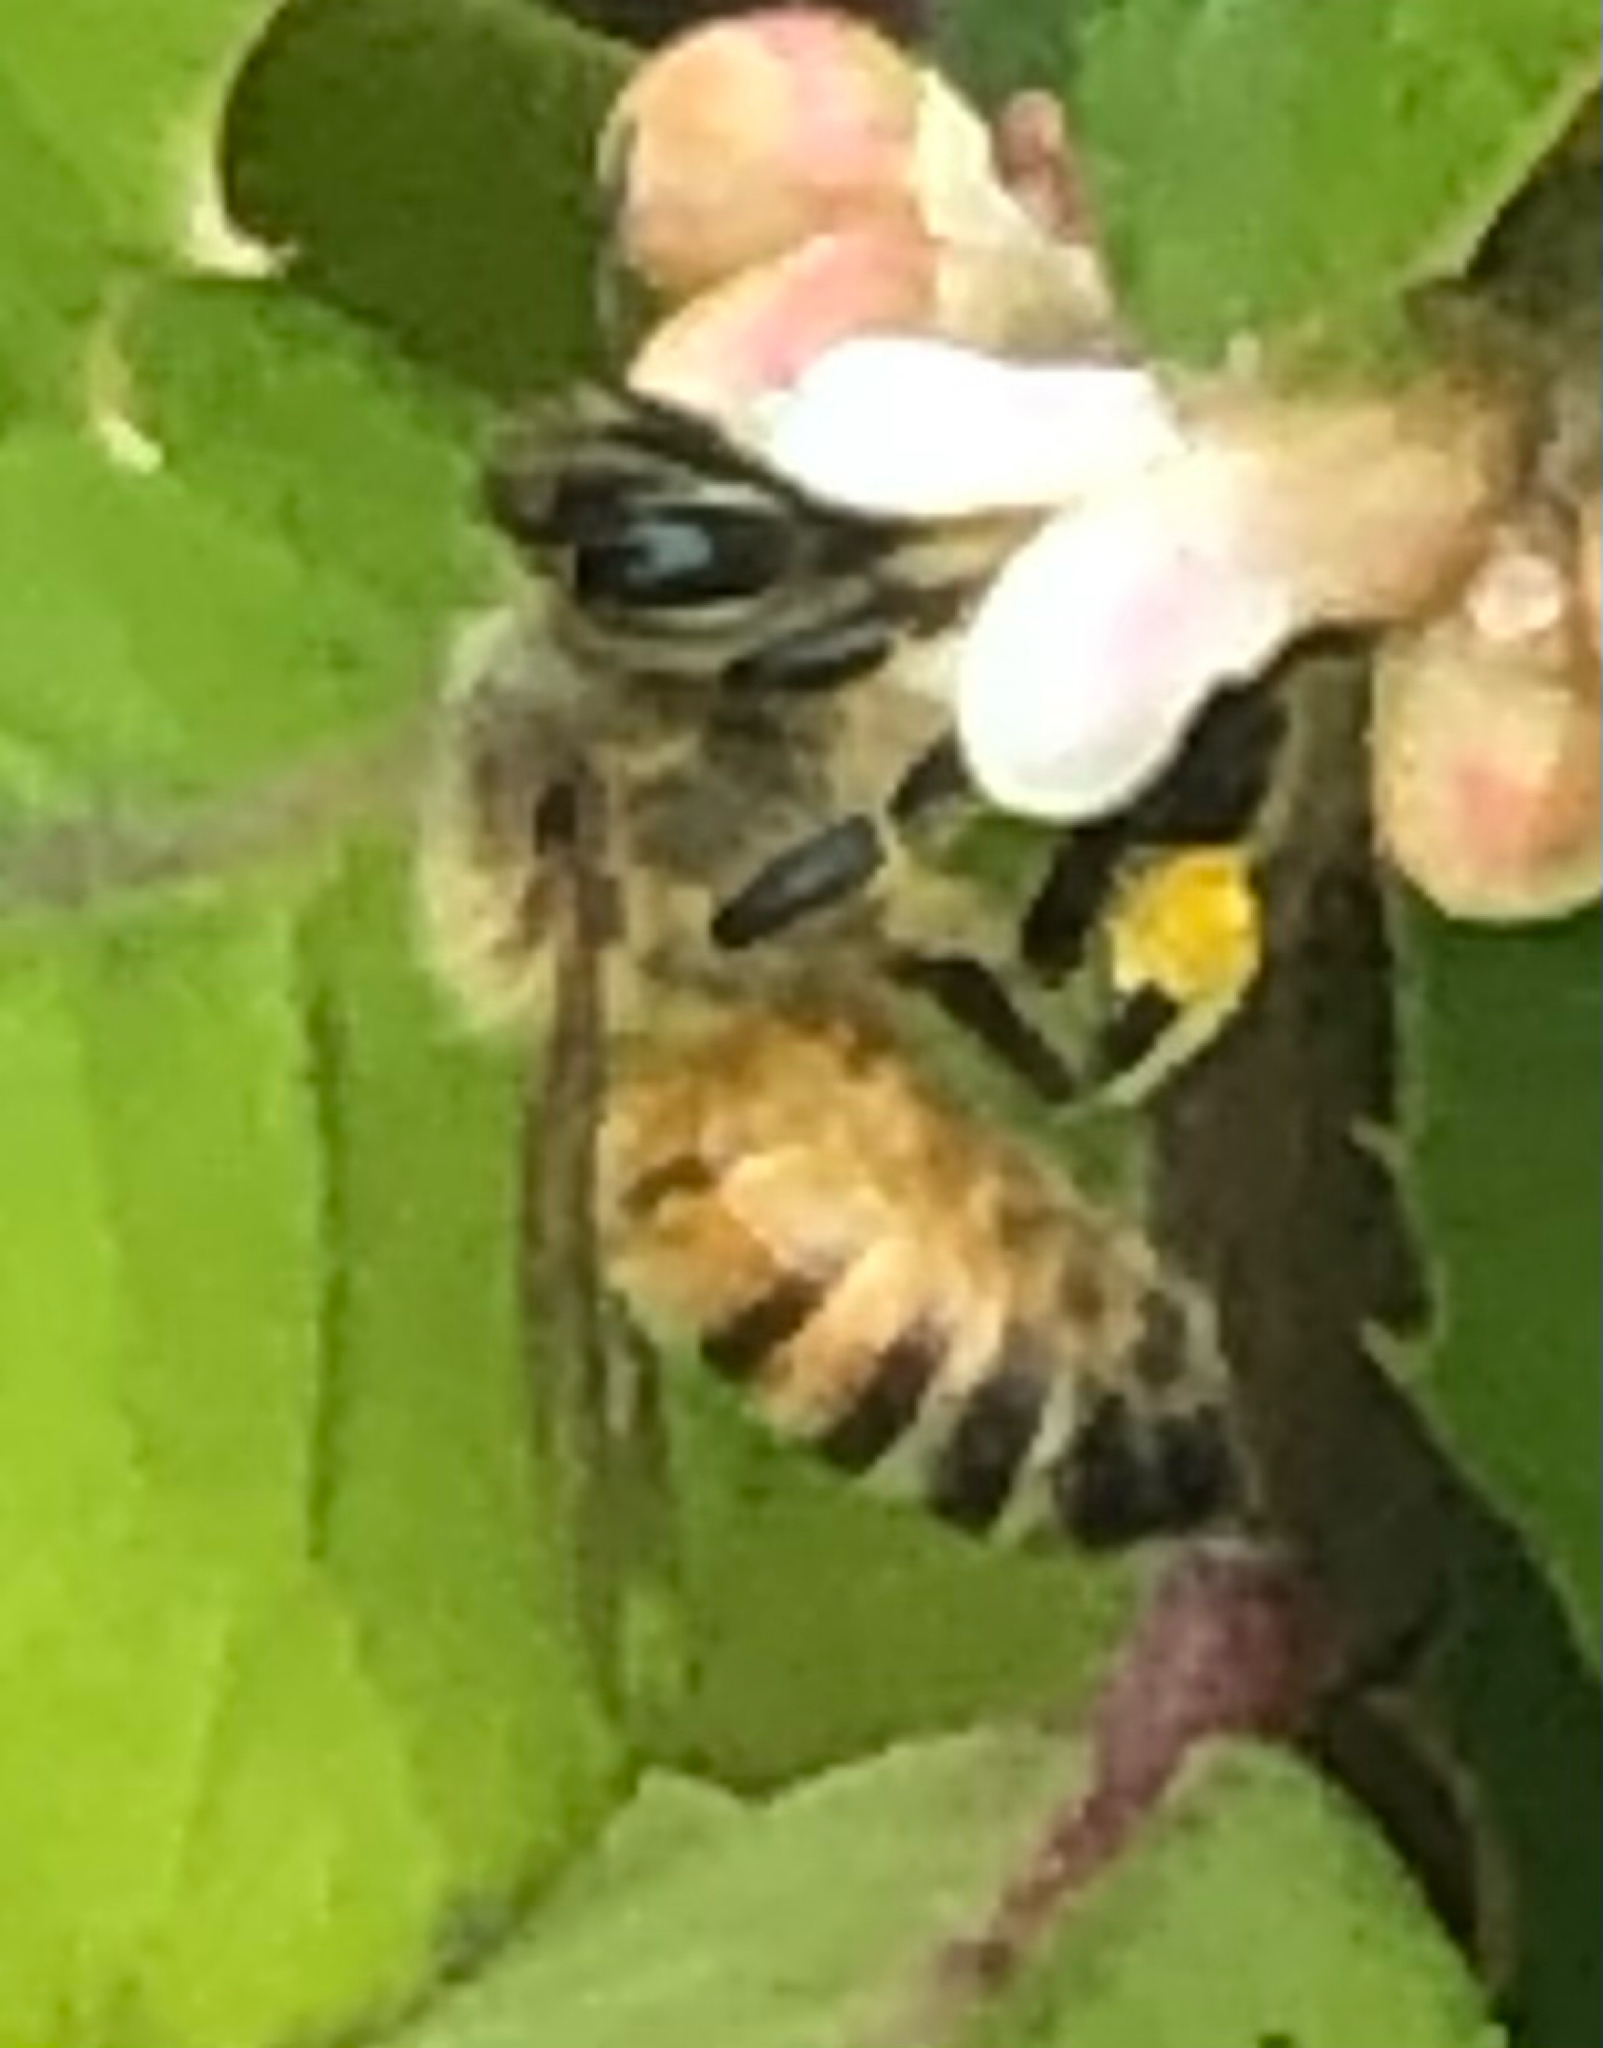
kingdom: Animalia
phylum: Arthropoda
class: Insecta
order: Hymenoptera
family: Apidae
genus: Apis
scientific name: Apis mellifera
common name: Honey bee
